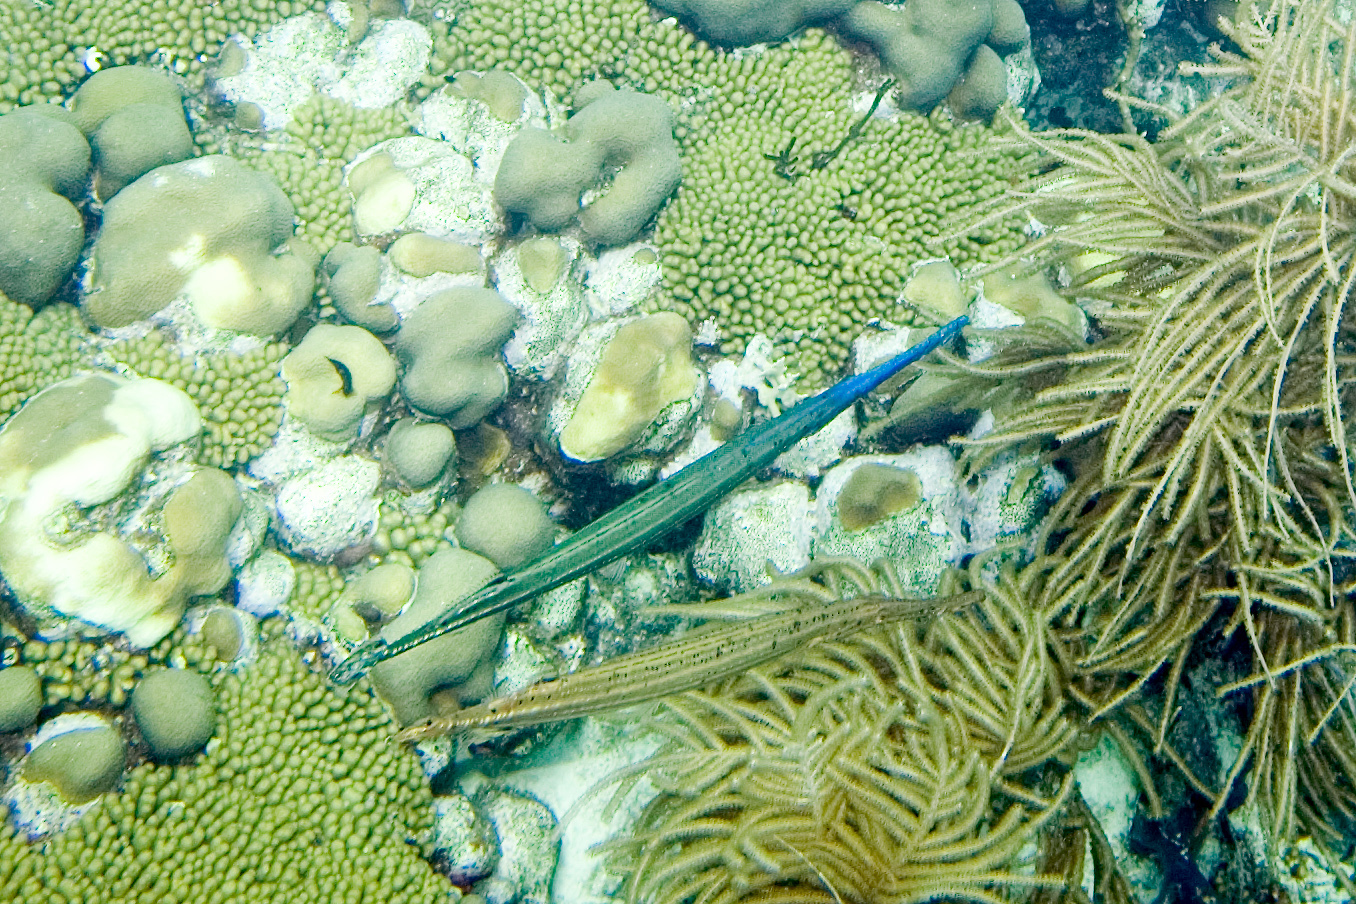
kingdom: Animalia
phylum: Chordata
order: Syngnathiformes
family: Aulostomidae
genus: Aulostomus
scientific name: Aulostomus maculatus
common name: West atlantic trumpetfish
